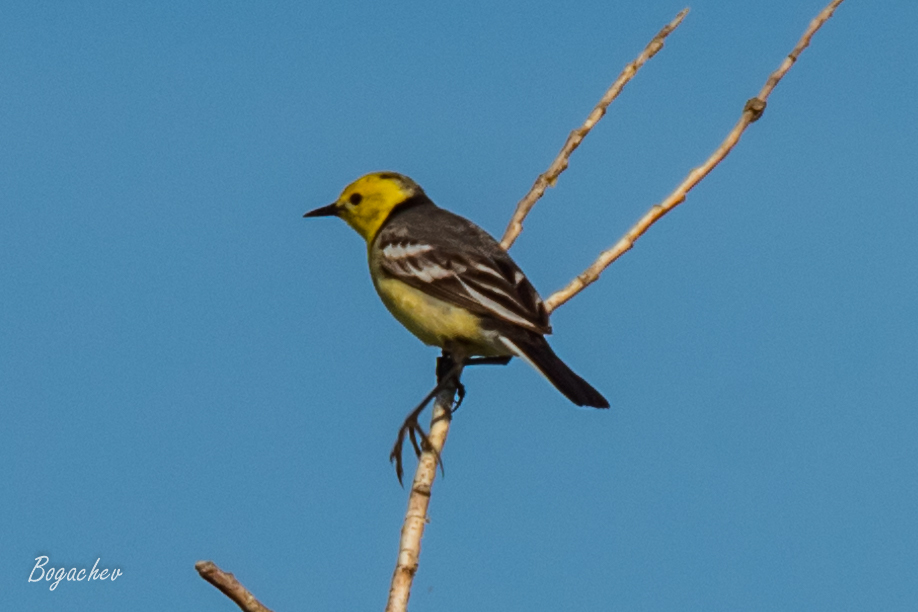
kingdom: Animalia
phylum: Chordata
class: Aves
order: Passeriformes
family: Motacillidae
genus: Motacilla
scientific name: Motacilla citreola
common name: Citrine wagtail
